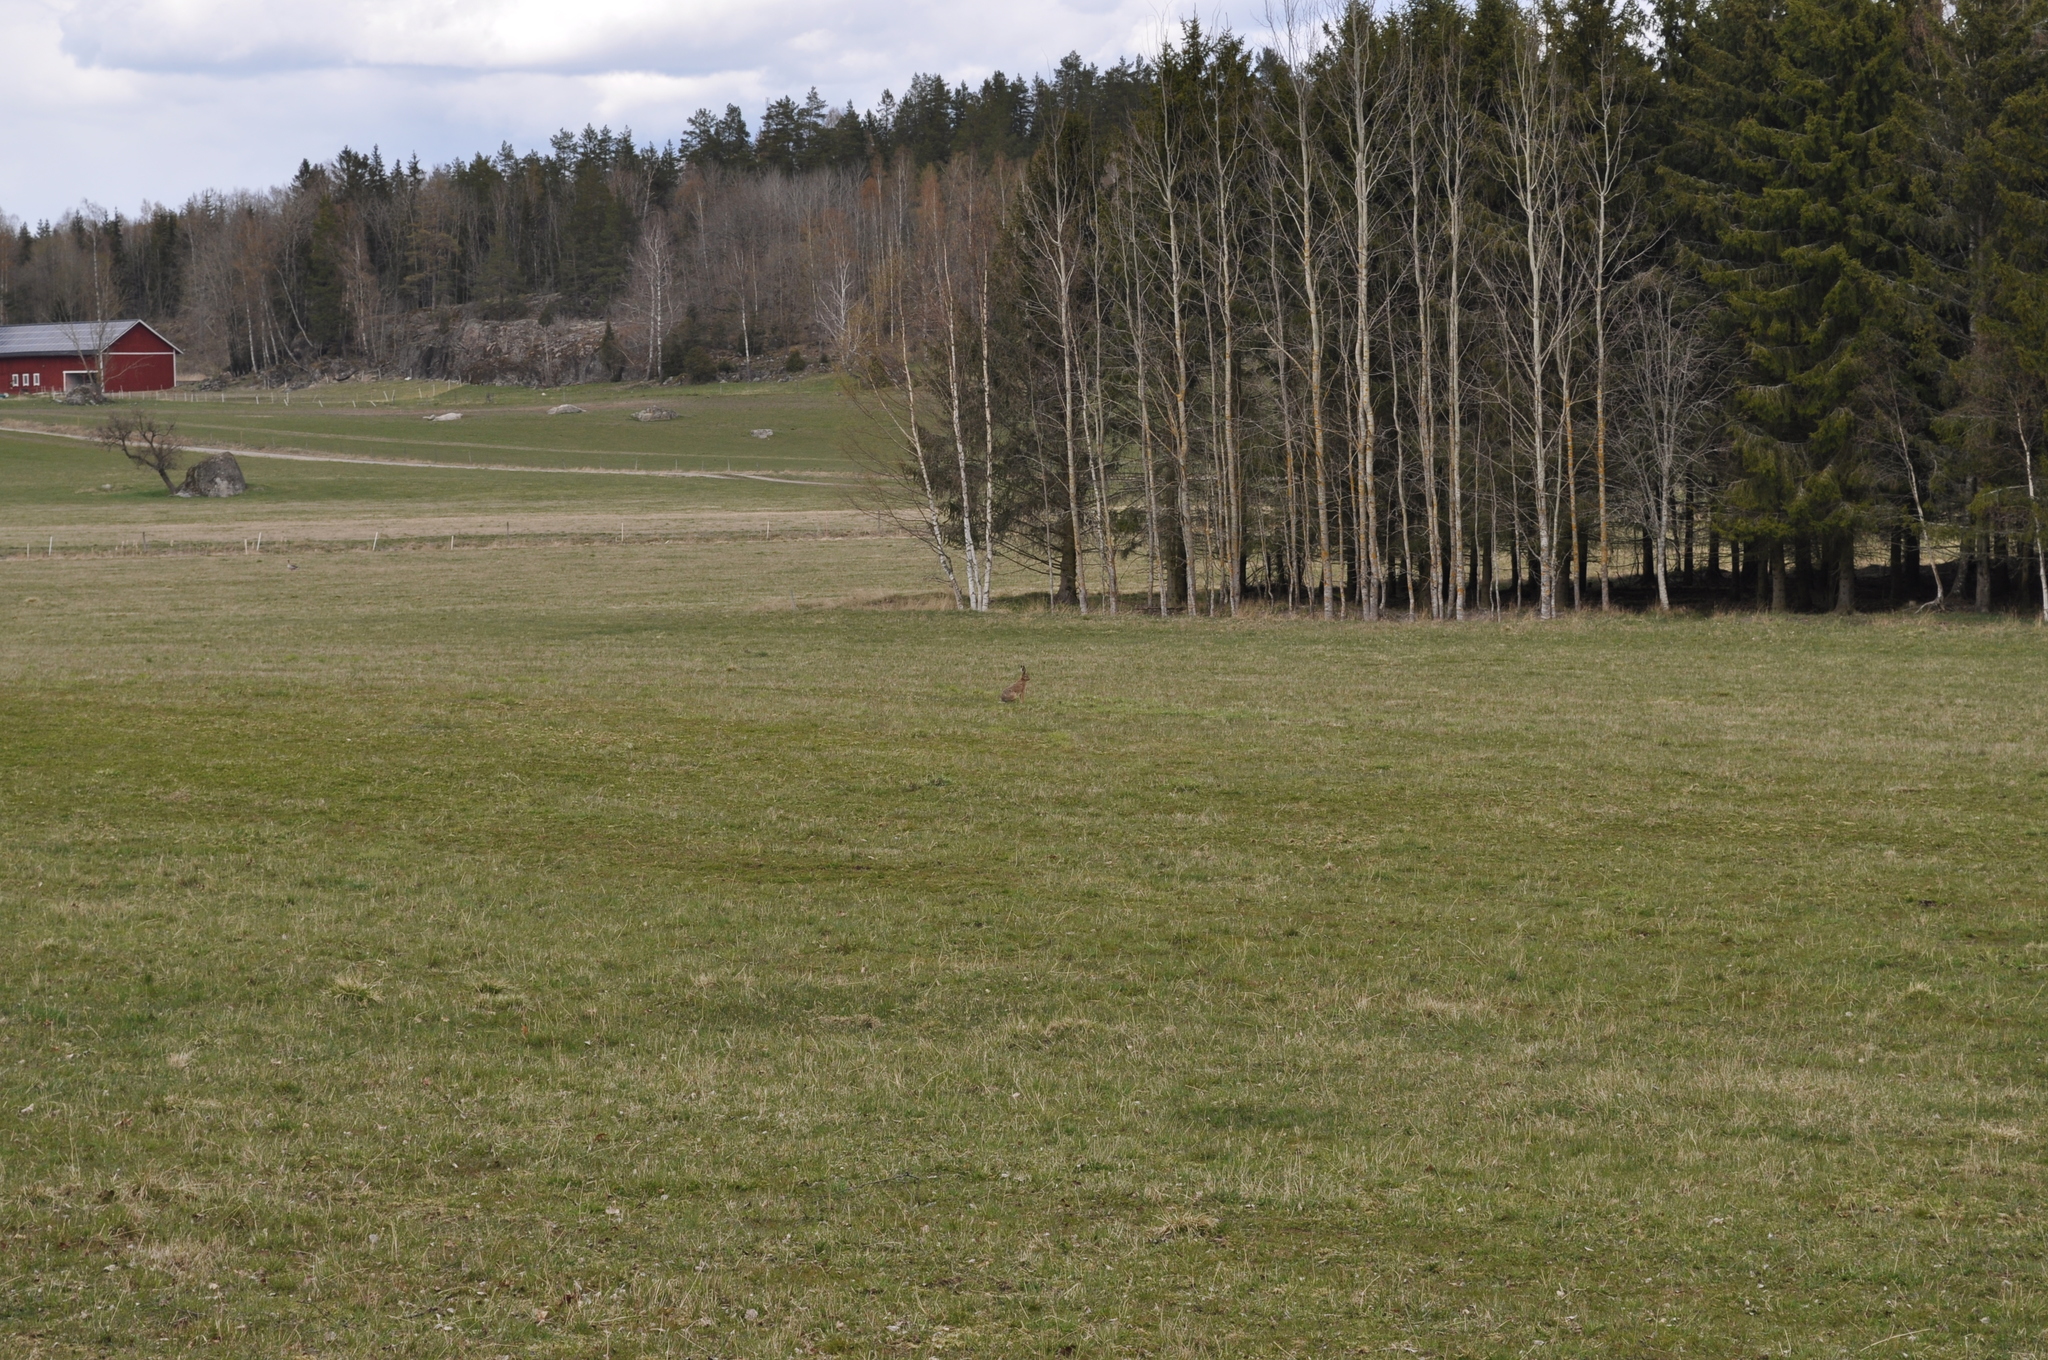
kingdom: Animalia
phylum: Chordata
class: Mammalia
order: Lagomorpha
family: Leporidae
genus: Lepus
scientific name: Lepus europaeus
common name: European hare
